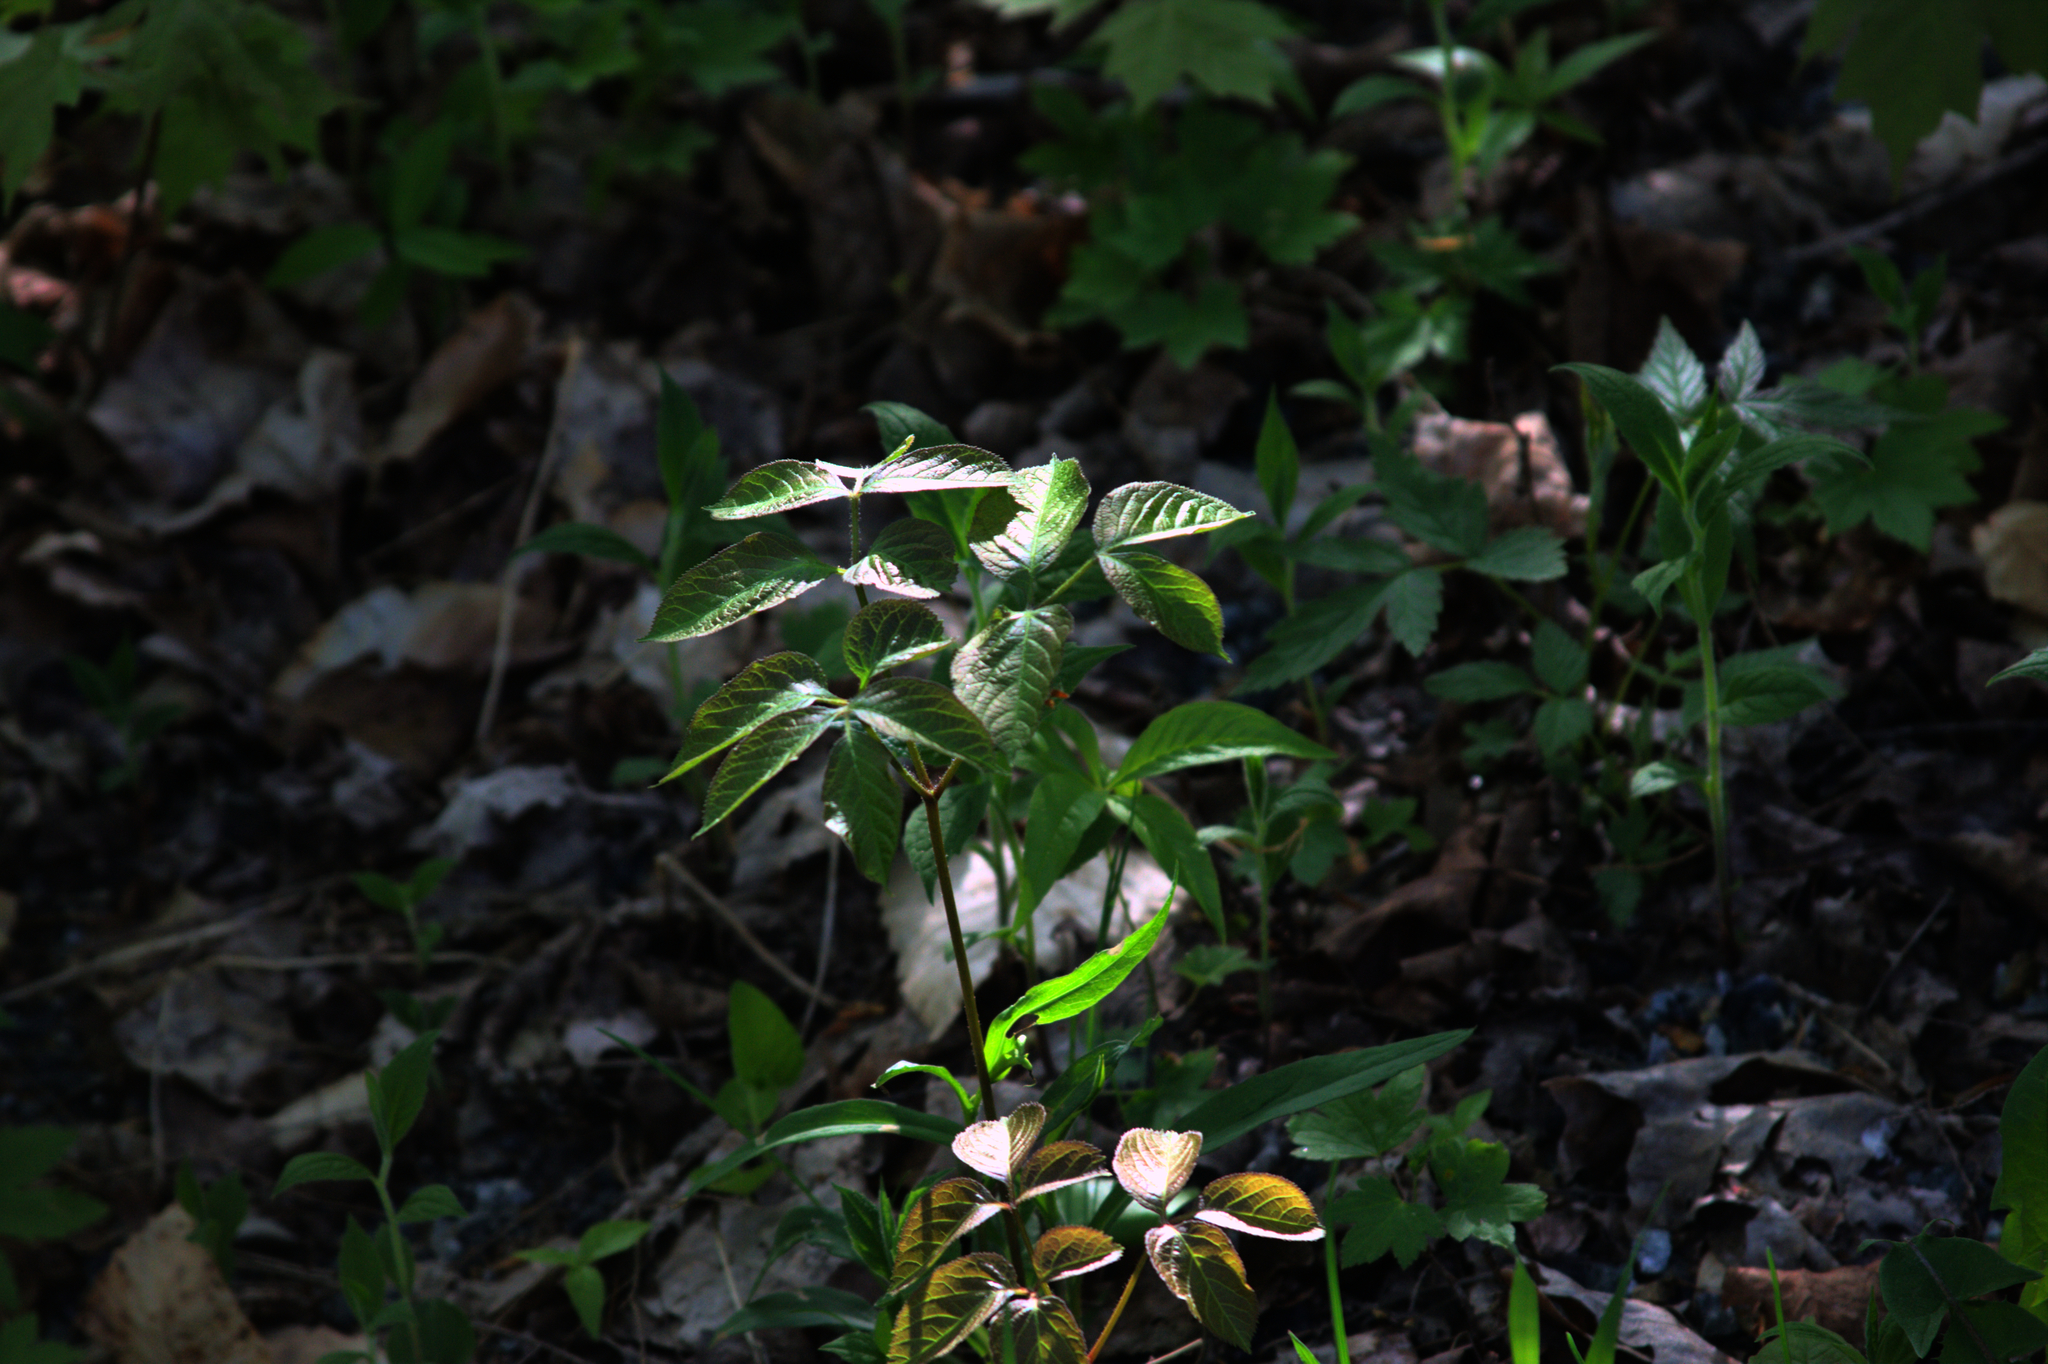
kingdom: Plantae
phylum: Tracheophyta
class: Magnoliopsida
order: Apiales
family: Araliaceae
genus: Aralia
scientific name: Aralia nudicaulis
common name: Wild sarsaparilla
